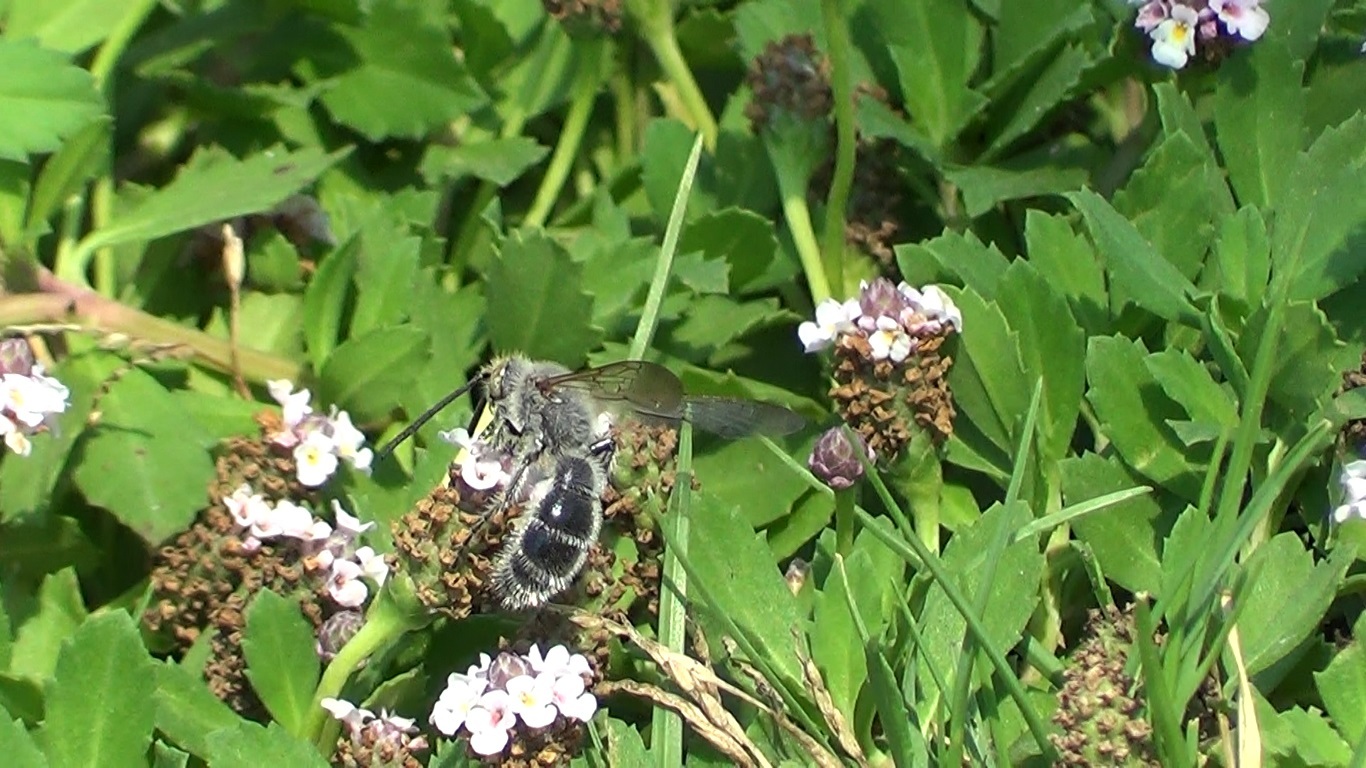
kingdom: Animalia
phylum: Arthropoda
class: Insecta
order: Hymenoptera
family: Scoliidae
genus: Campsomeriella
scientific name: Campsomeriella thoracica
